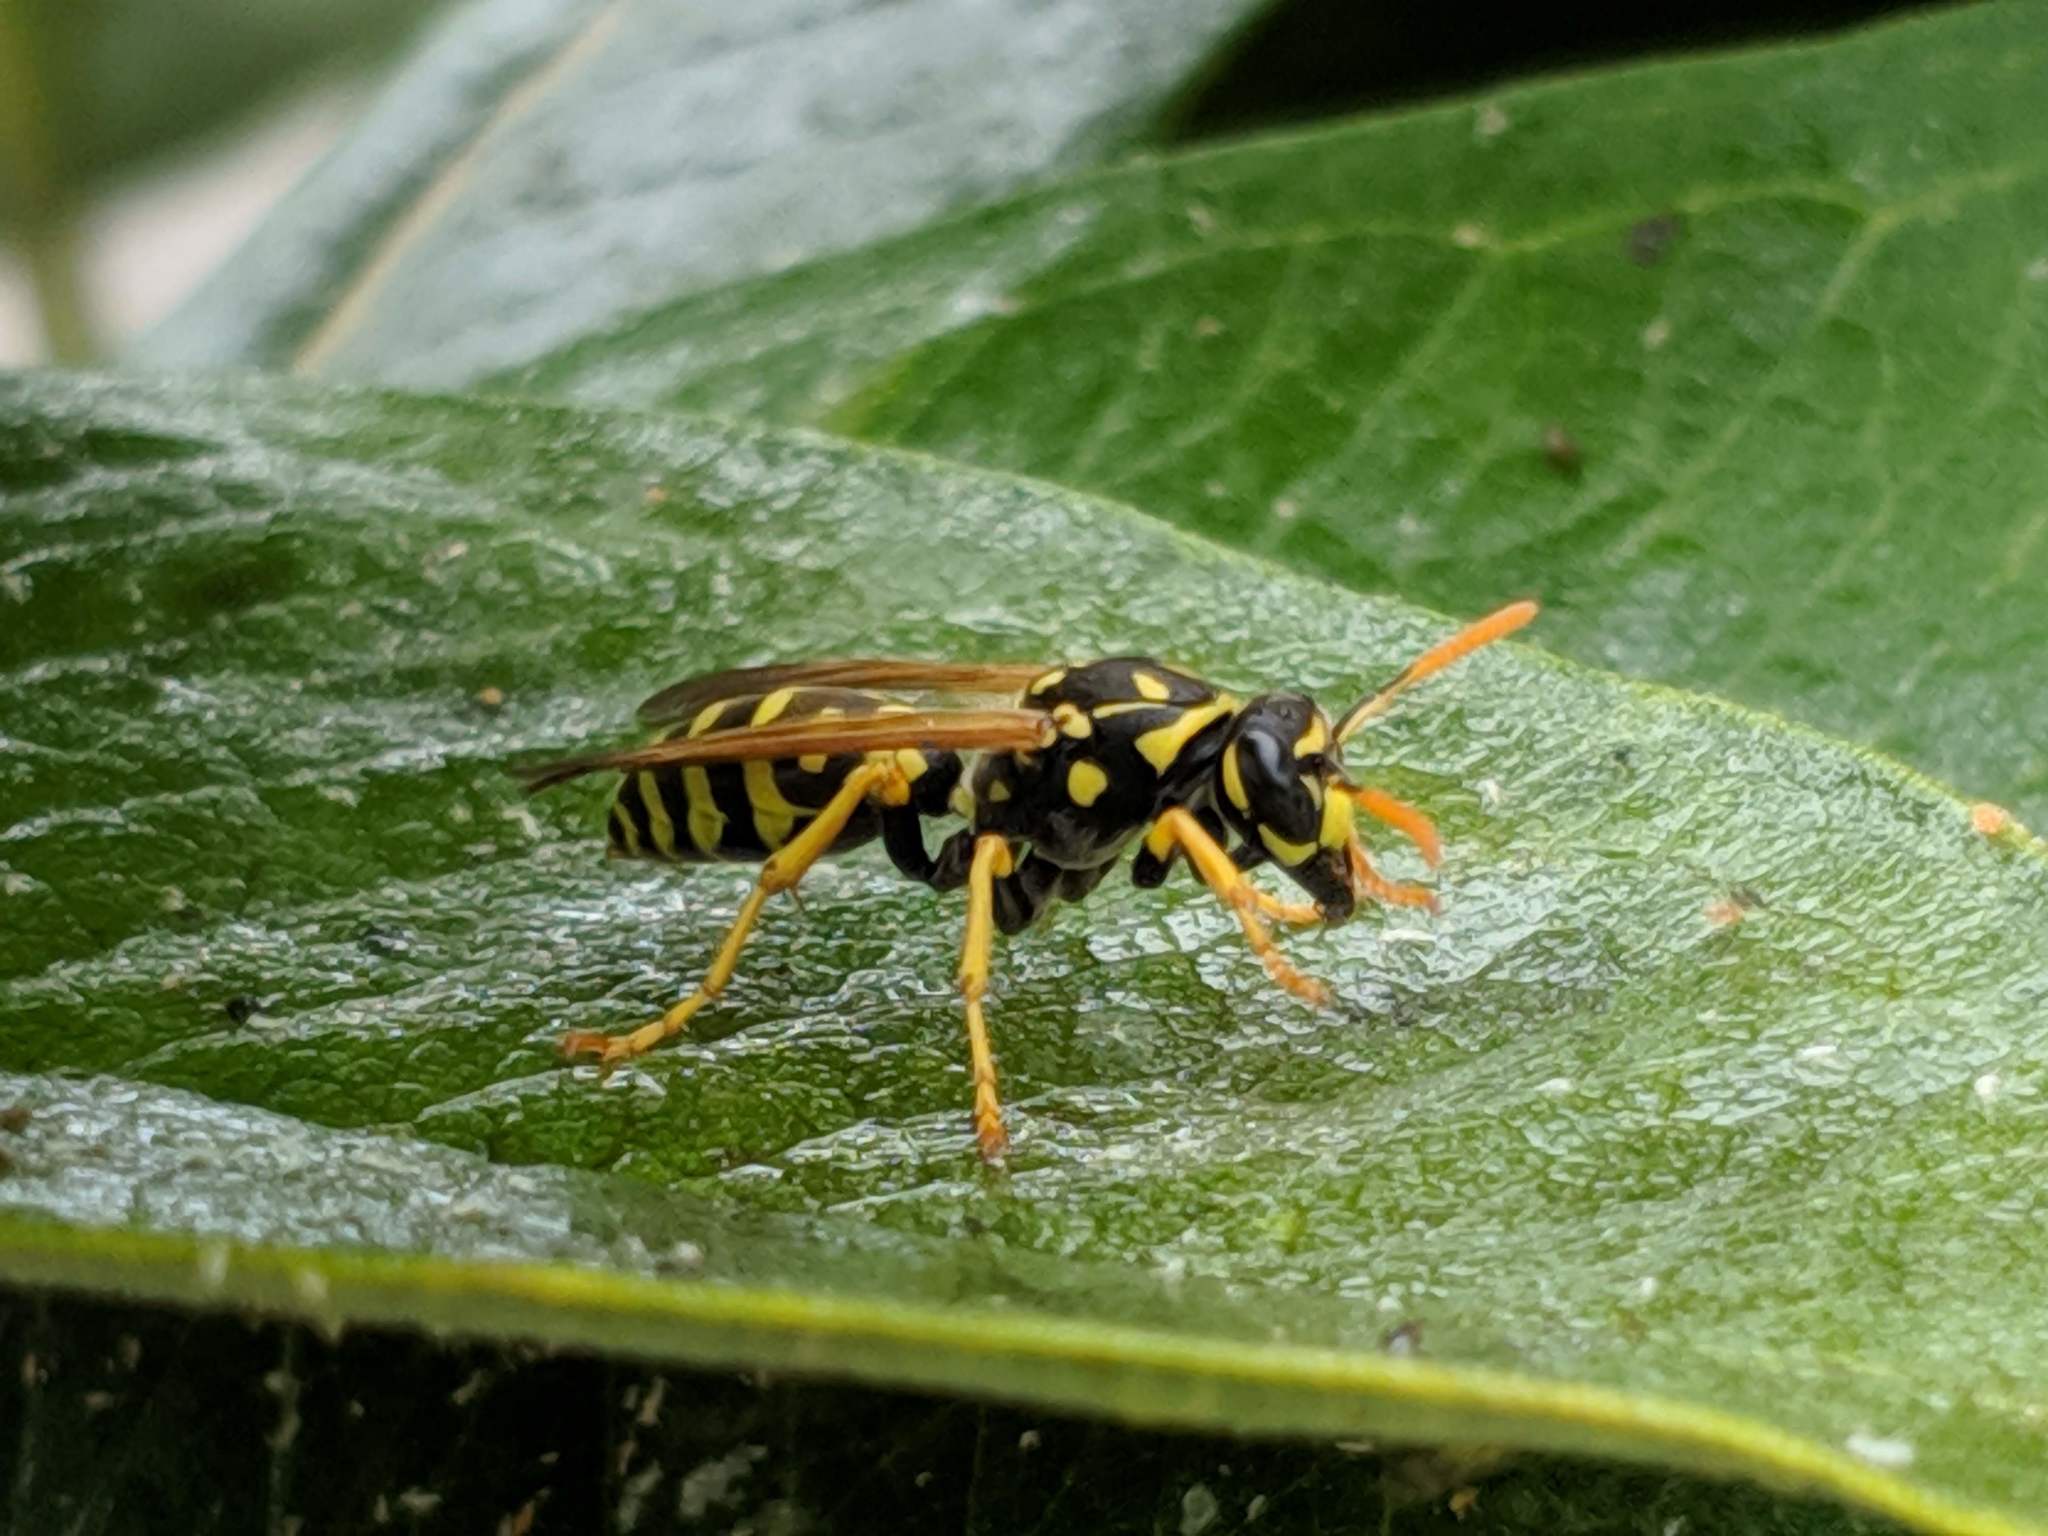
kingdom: Animalia
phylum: Arthropoda
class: Insecta
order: Hymenoptera
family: Eumenidae
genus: Polistes
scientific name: Polistes dominula
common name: Paper wasp
